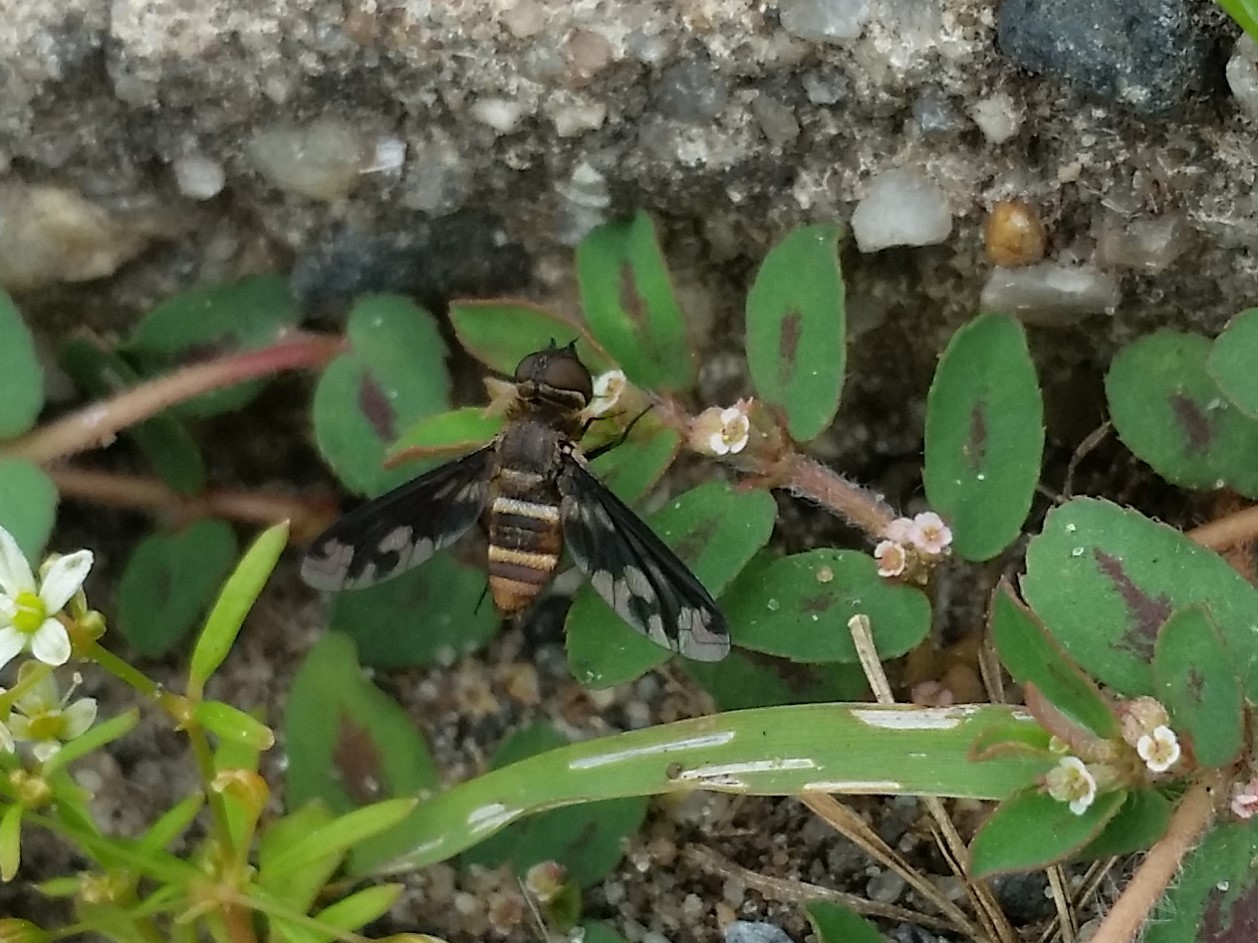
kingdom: Animalia
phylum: Arthropoda
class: Insecta
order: Diptera
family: Bombyliidae
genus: Exoprosopa
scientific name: Exoprosopa fascipennis
